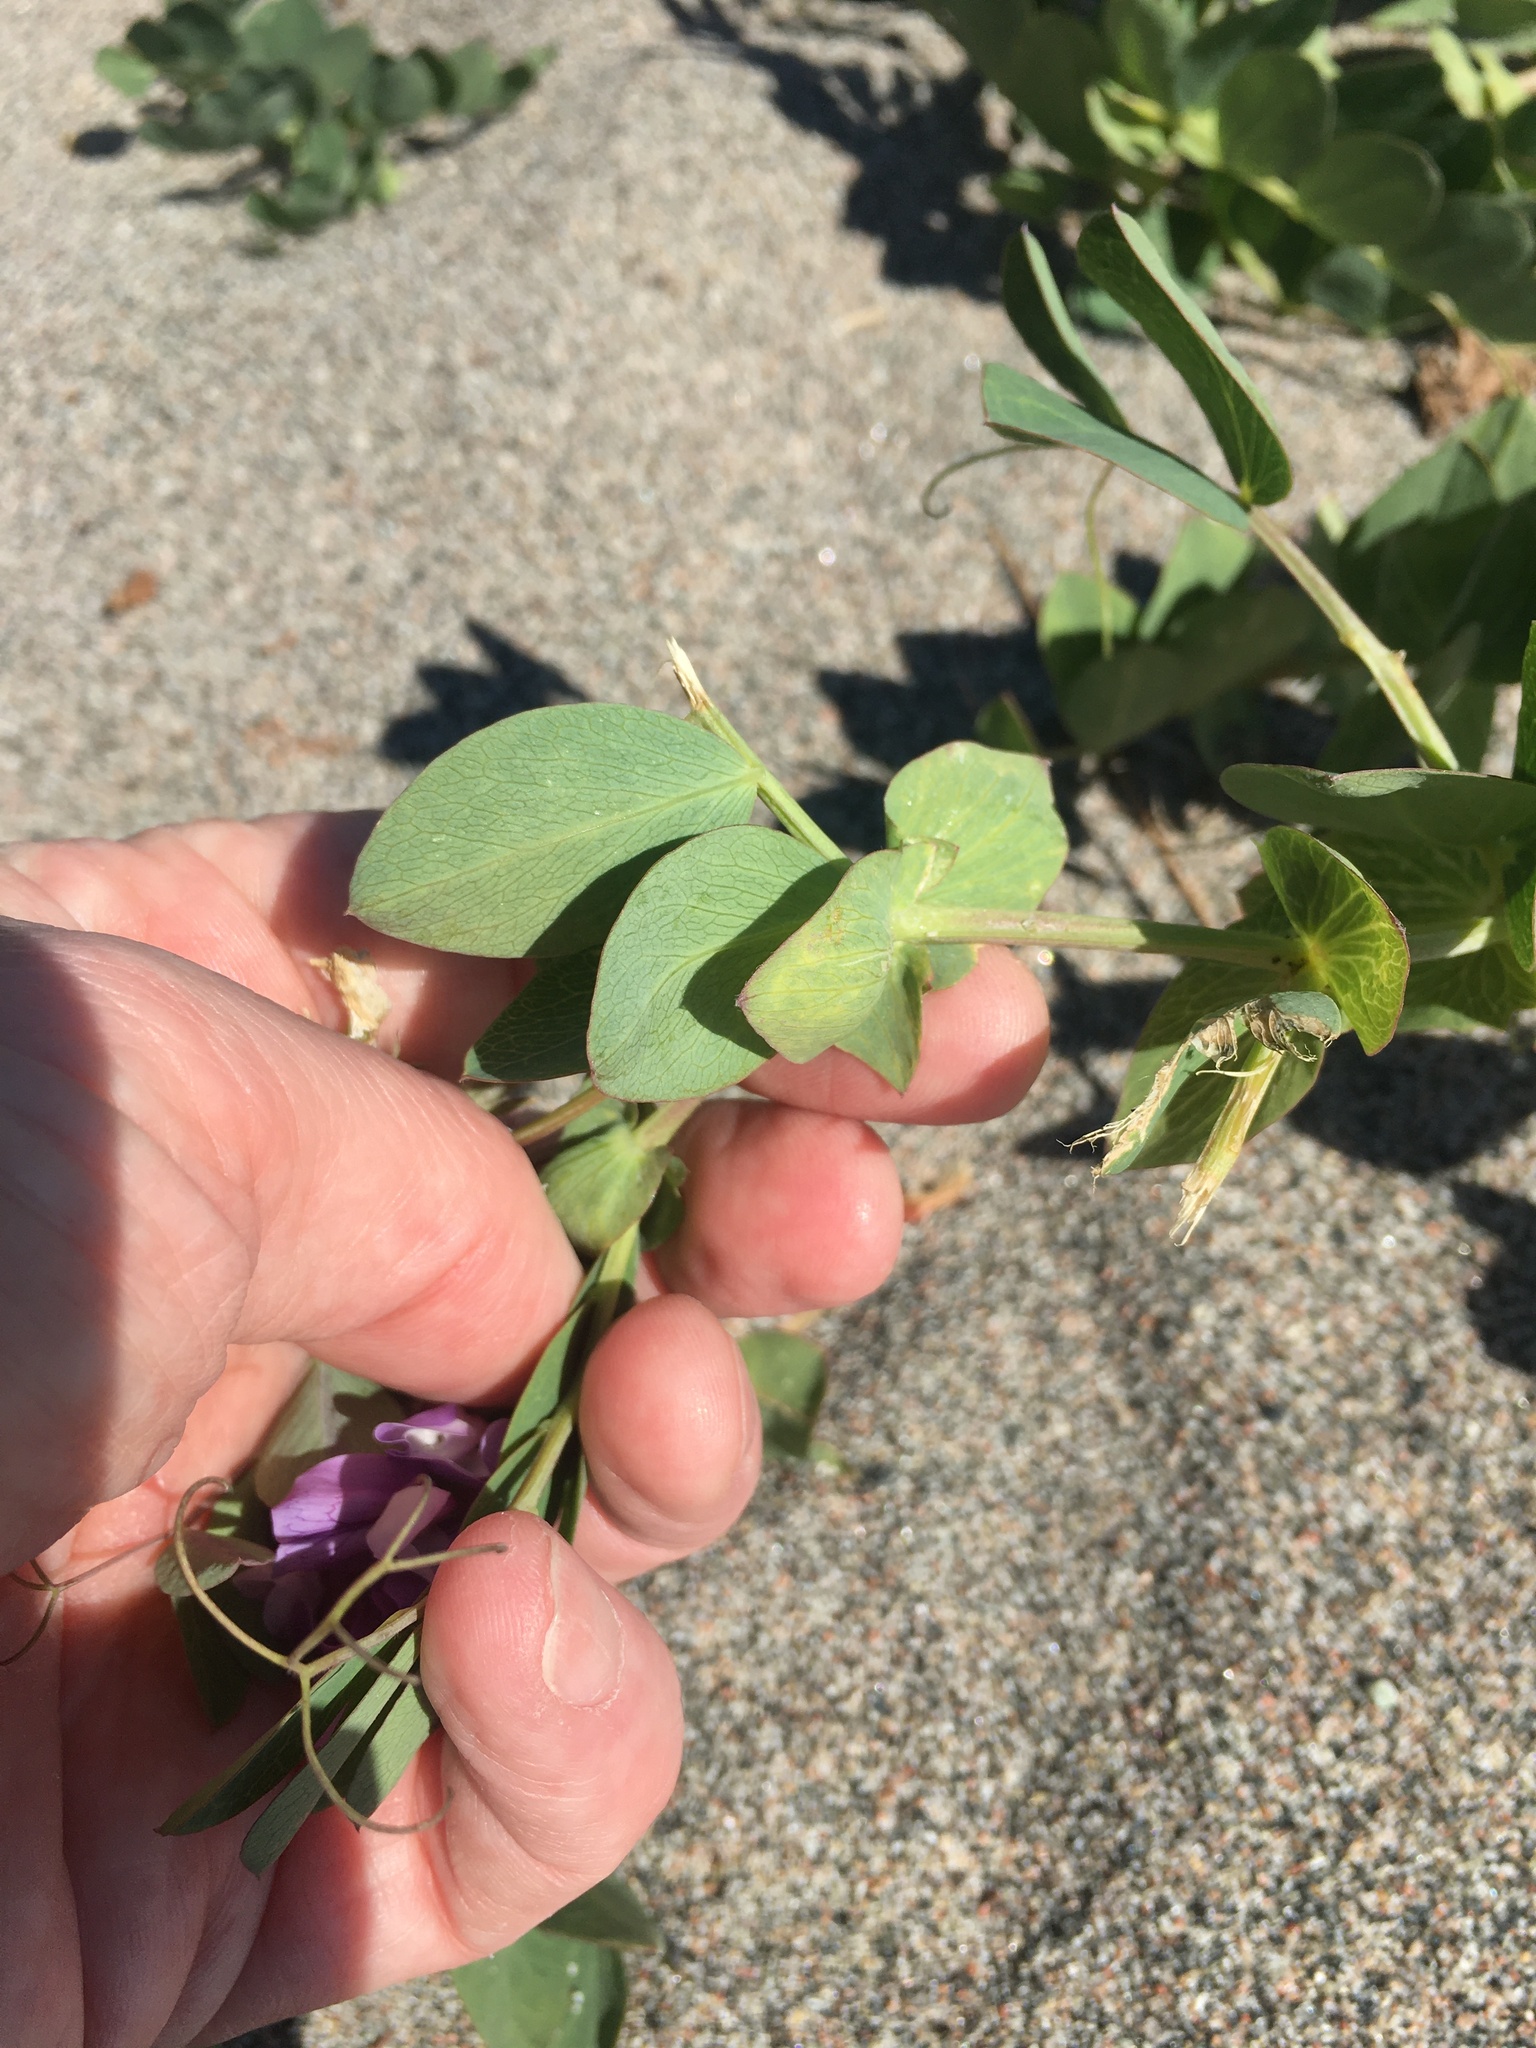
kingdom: Plantae
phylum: Tracheophyta
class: Magnoliopsida
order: Fabales
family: Fabaceae
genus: Lathyrus
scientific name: Lathyrus japonicus
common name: Sea pea
